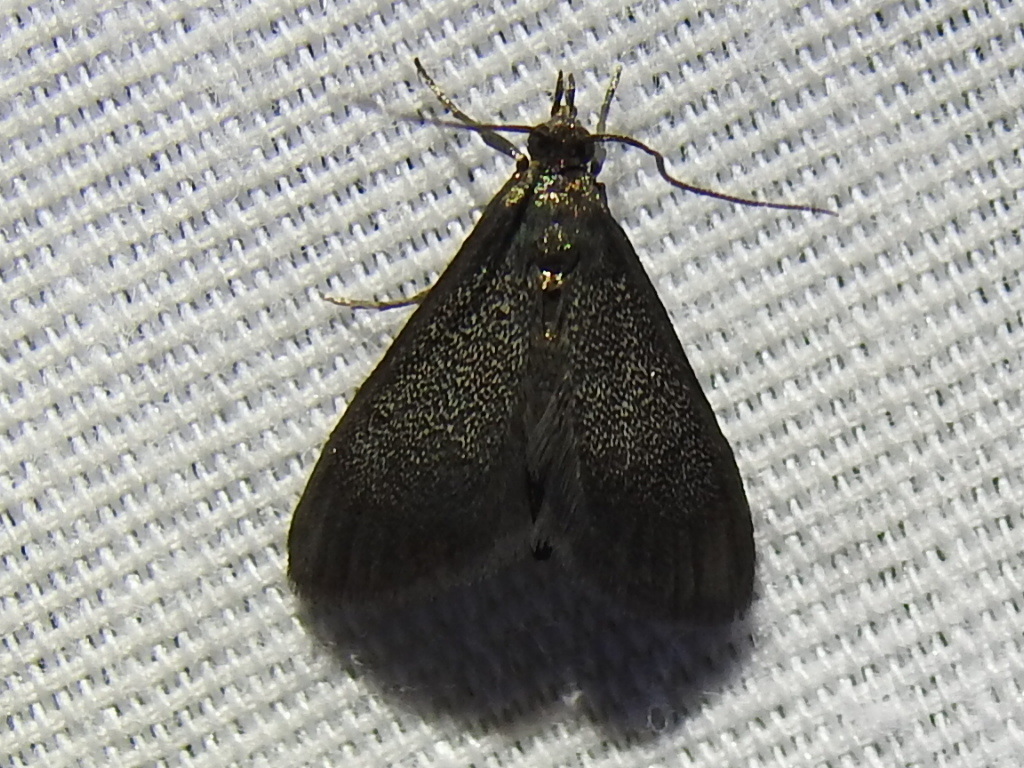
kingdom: Animalia
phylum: Arthropoda
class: Insecta
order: Lepidoptera
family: Psychidae
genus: Cryptothelea
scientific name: Cryptothelea gloverii
